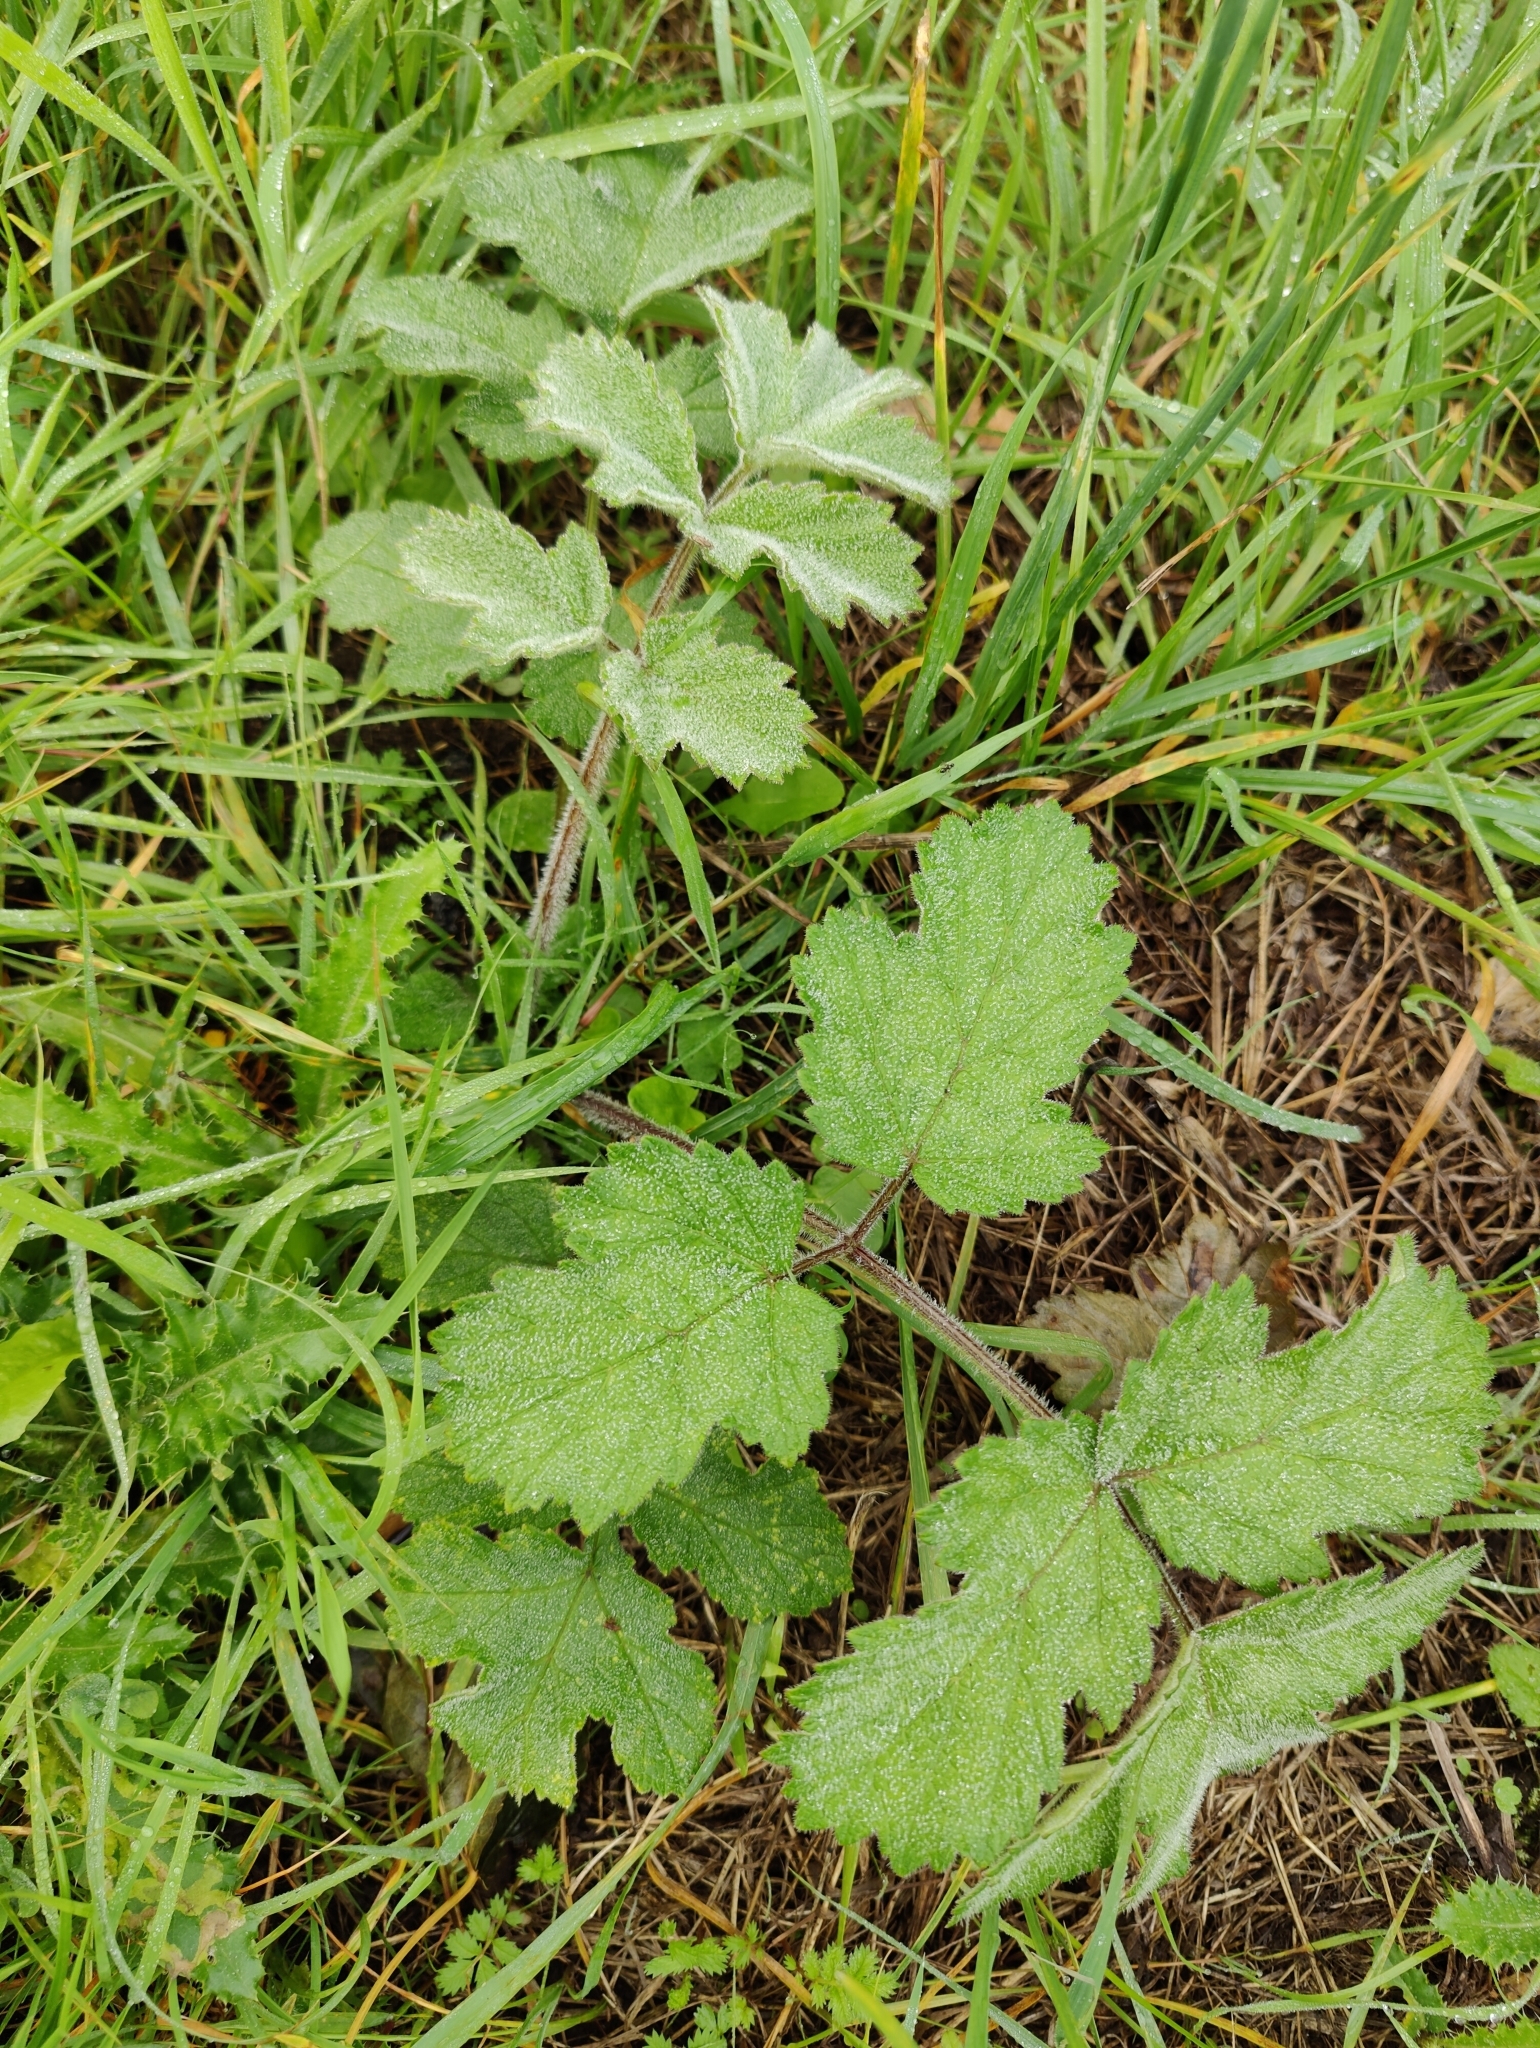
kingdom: Plantae
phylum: Tracheophyta
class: Magnoliopsida
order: Apiales
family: Apiaceae
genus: Heracleum
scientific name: Heracleum sphondylium
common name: Hogweed
